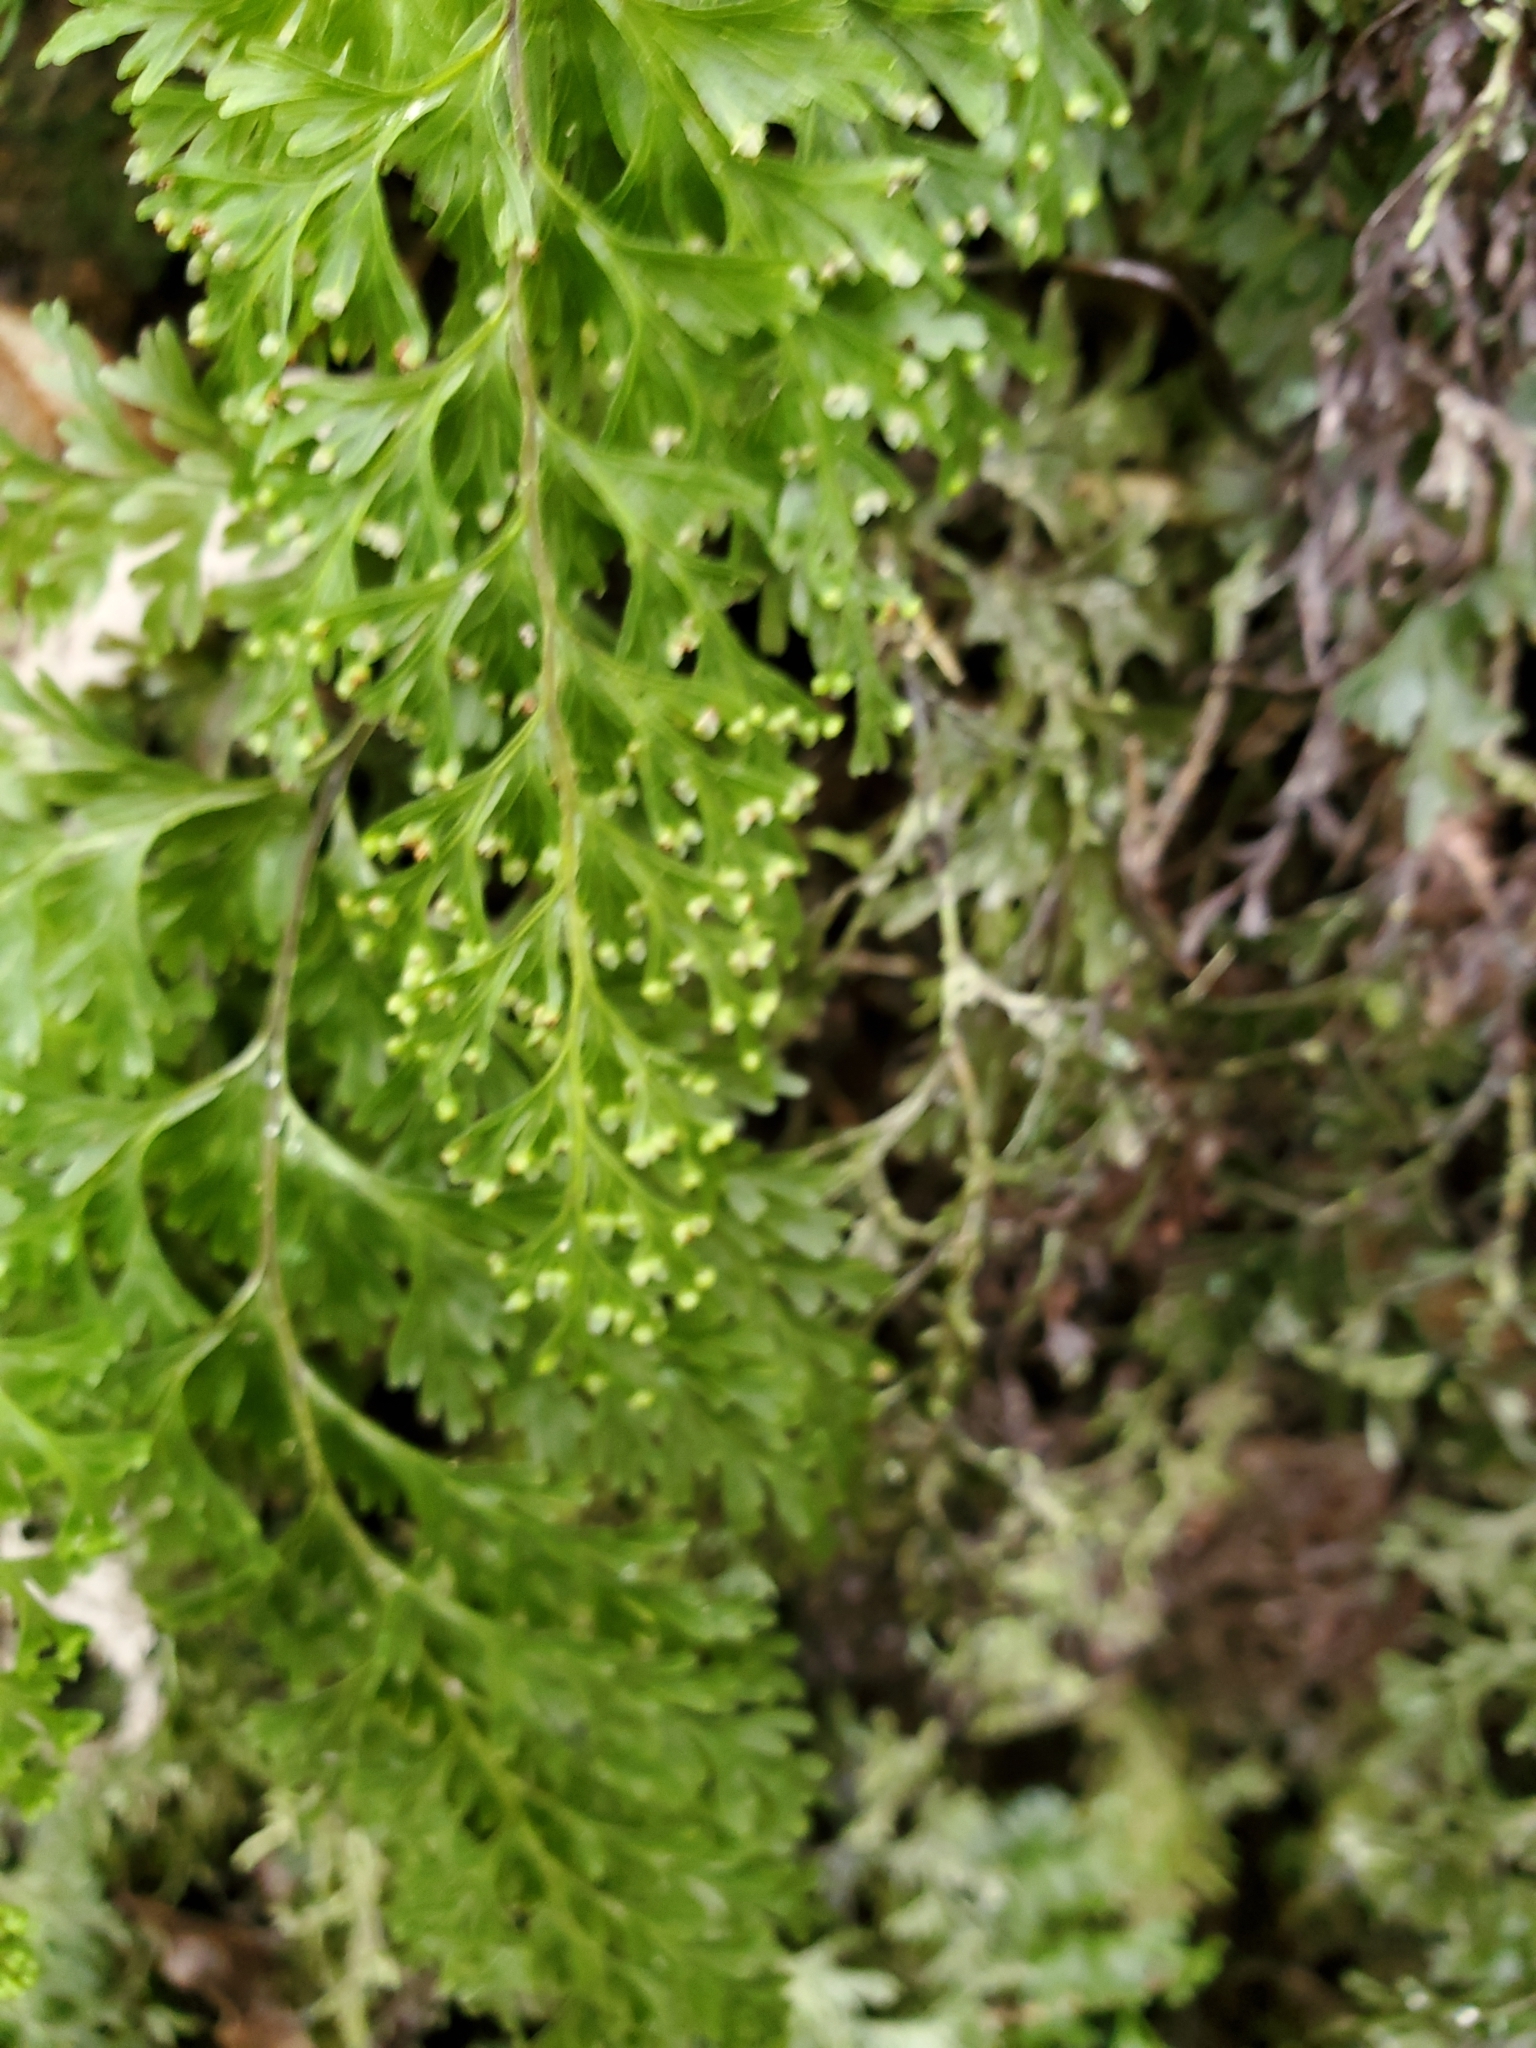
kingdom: Plantae
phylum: Tracheophyta
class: Polypodiopsida
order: Hymenophyllales
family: Hymenophyllaceae
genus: Hymenophyllum
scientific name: Hymenophyllum demissum
